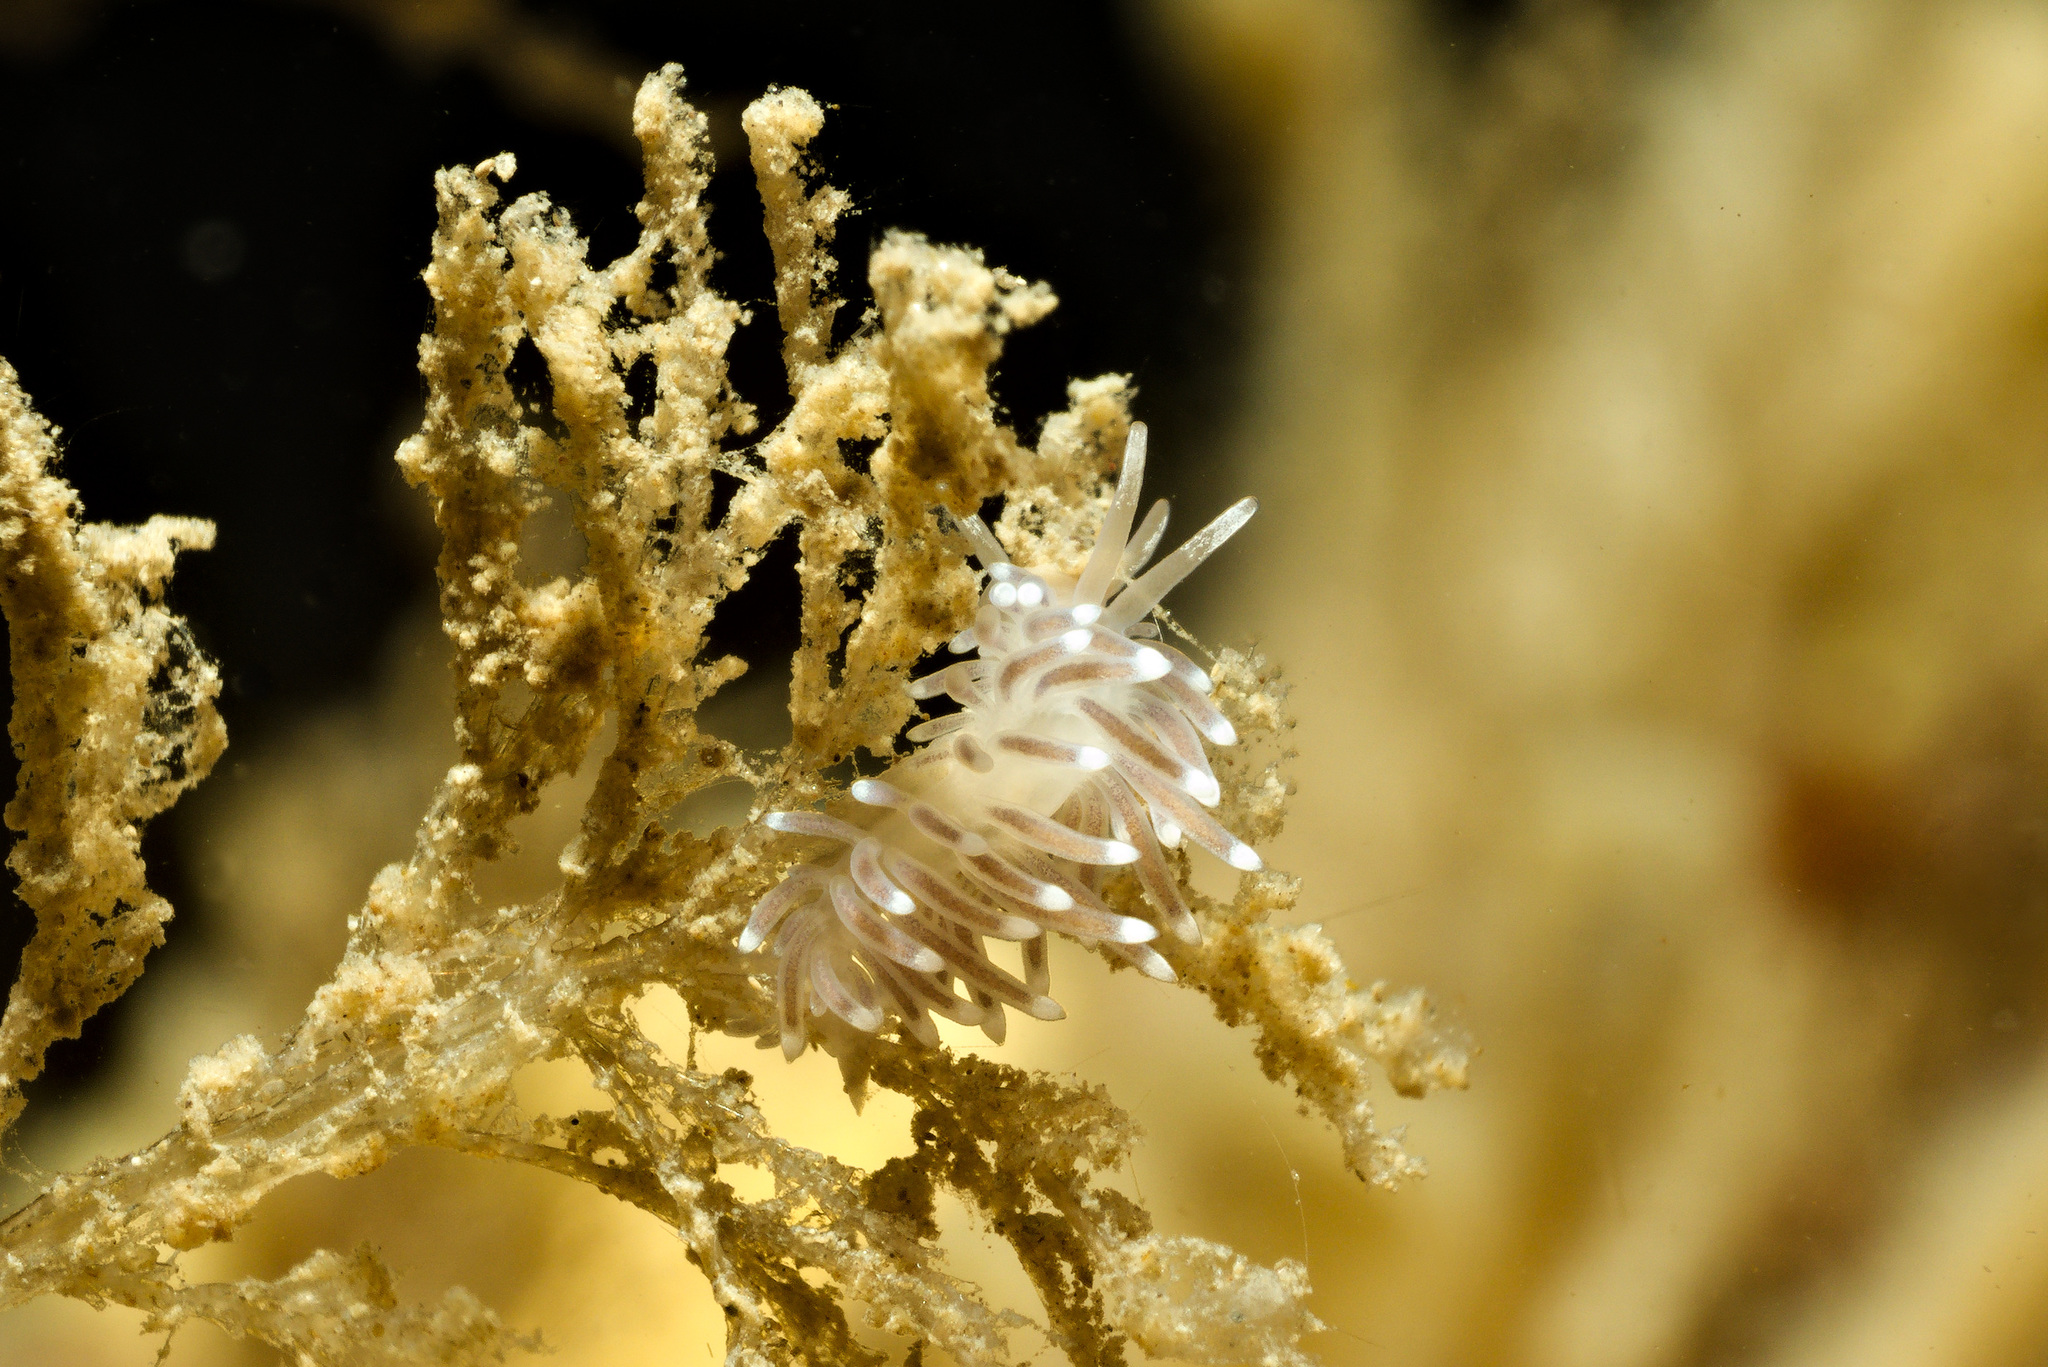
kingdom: Animalia
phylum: Mollusca
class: Gastropoda
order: Nudibranchia
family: Cuthonellidae
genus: Cuthonella
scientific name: Cuthonella concinna
